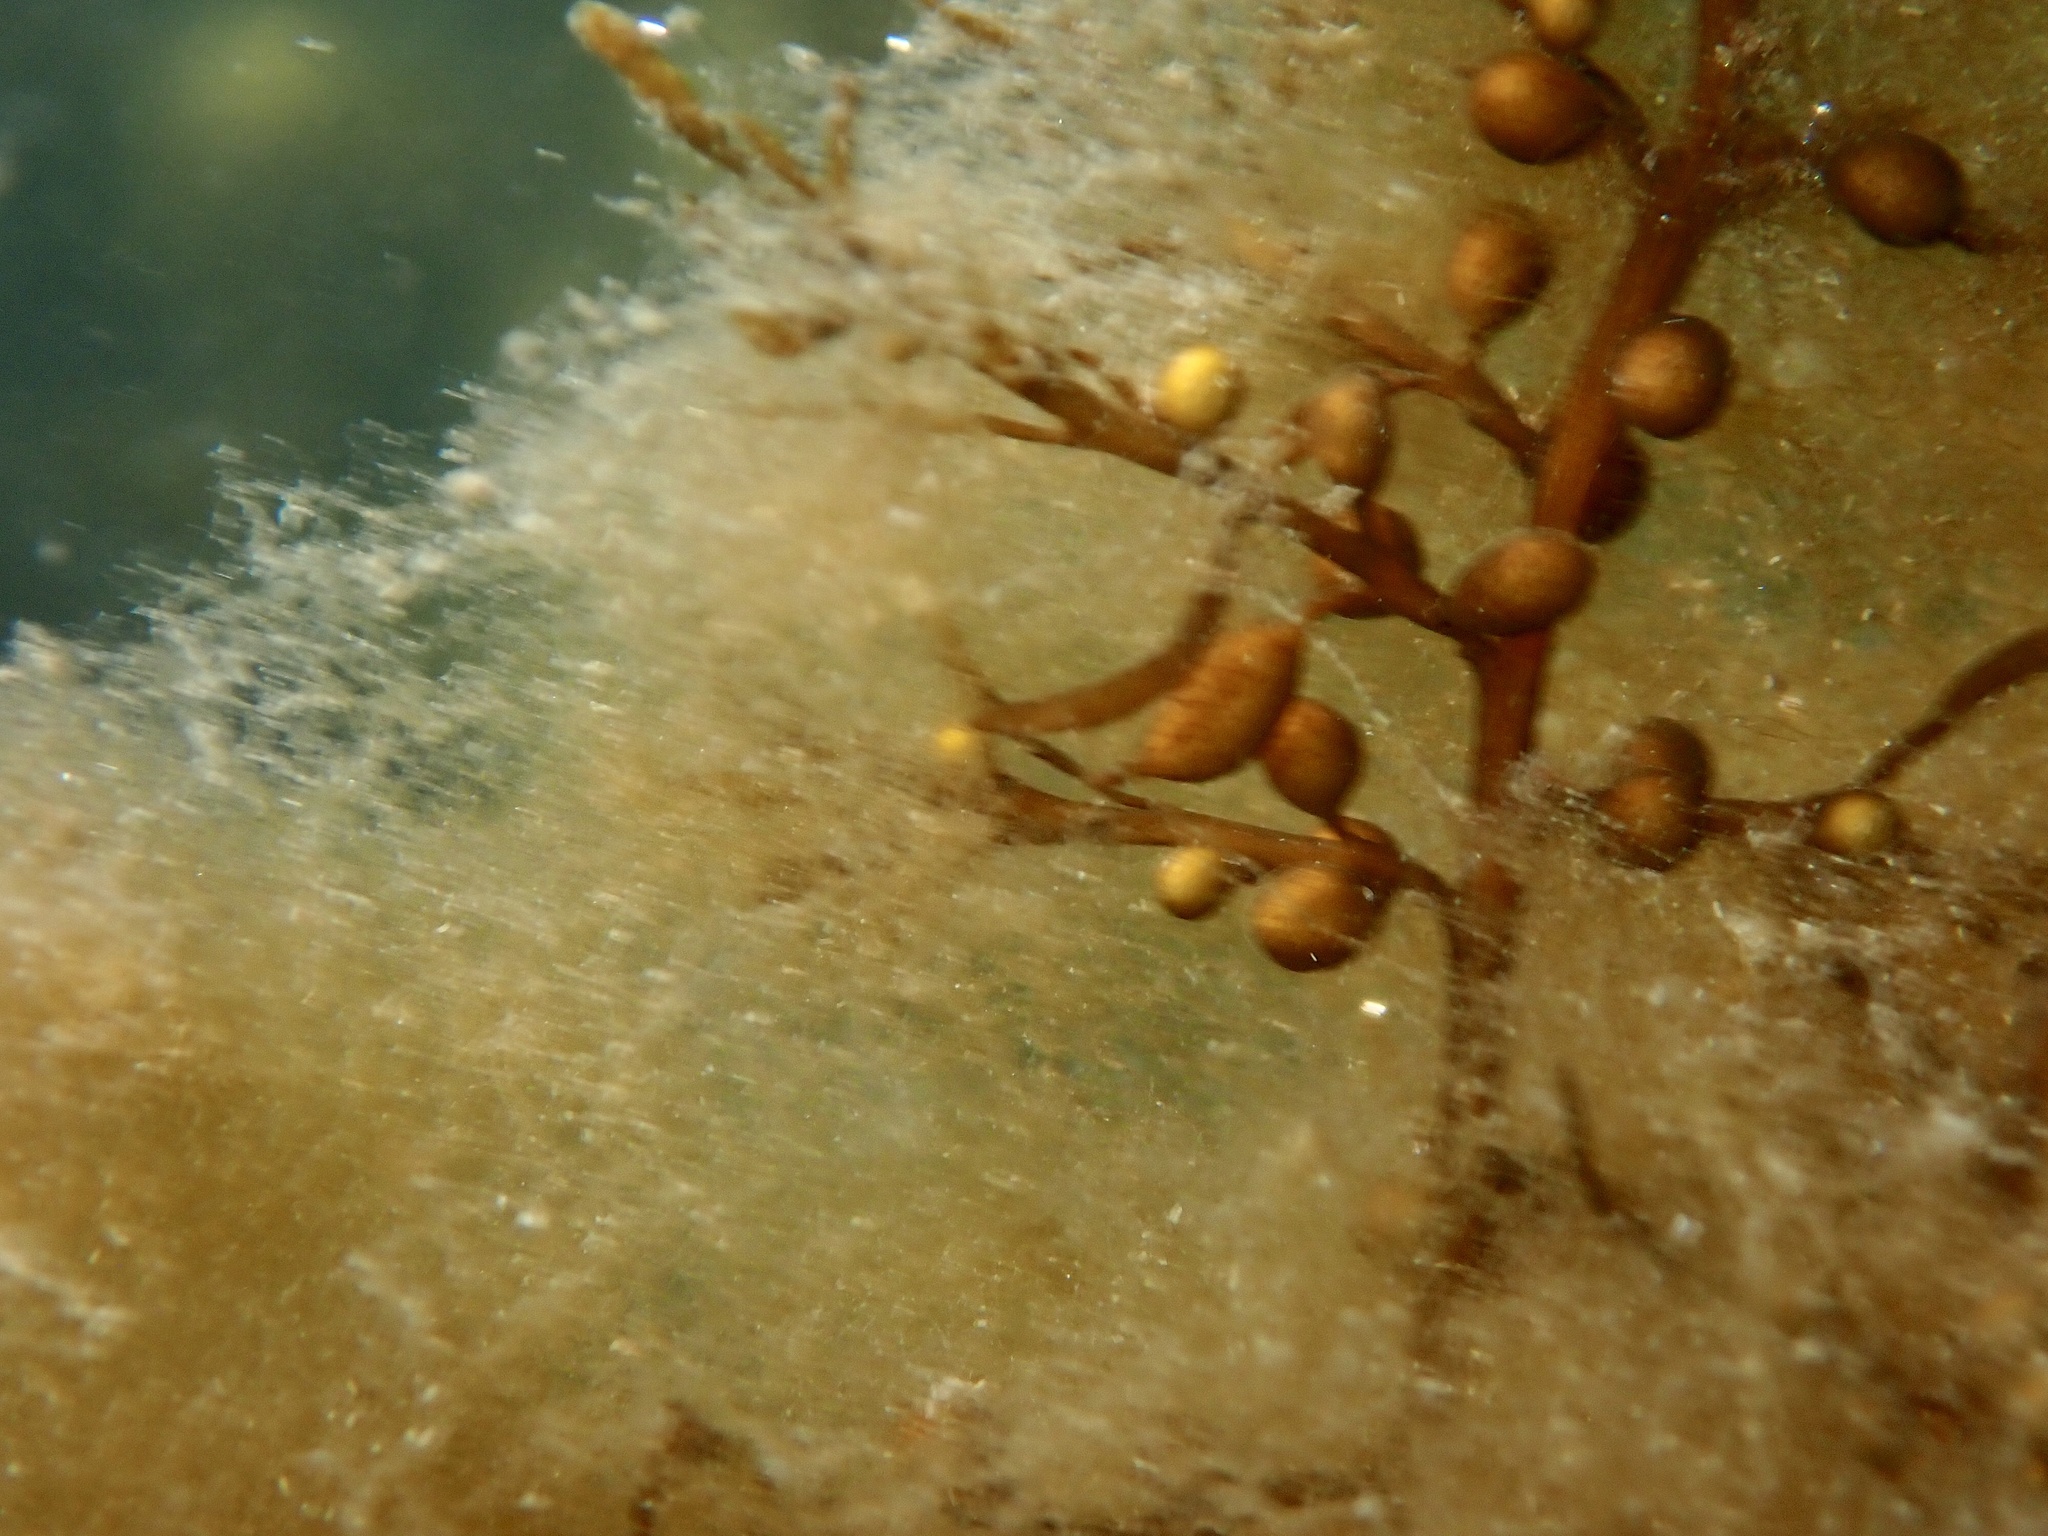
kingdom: Chromista
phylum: Ochrophyta
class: Phaeophyceae
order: Fucales
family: Sargassaceae
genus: Sargassum
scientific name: Sargassum muticum
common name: Japweed
